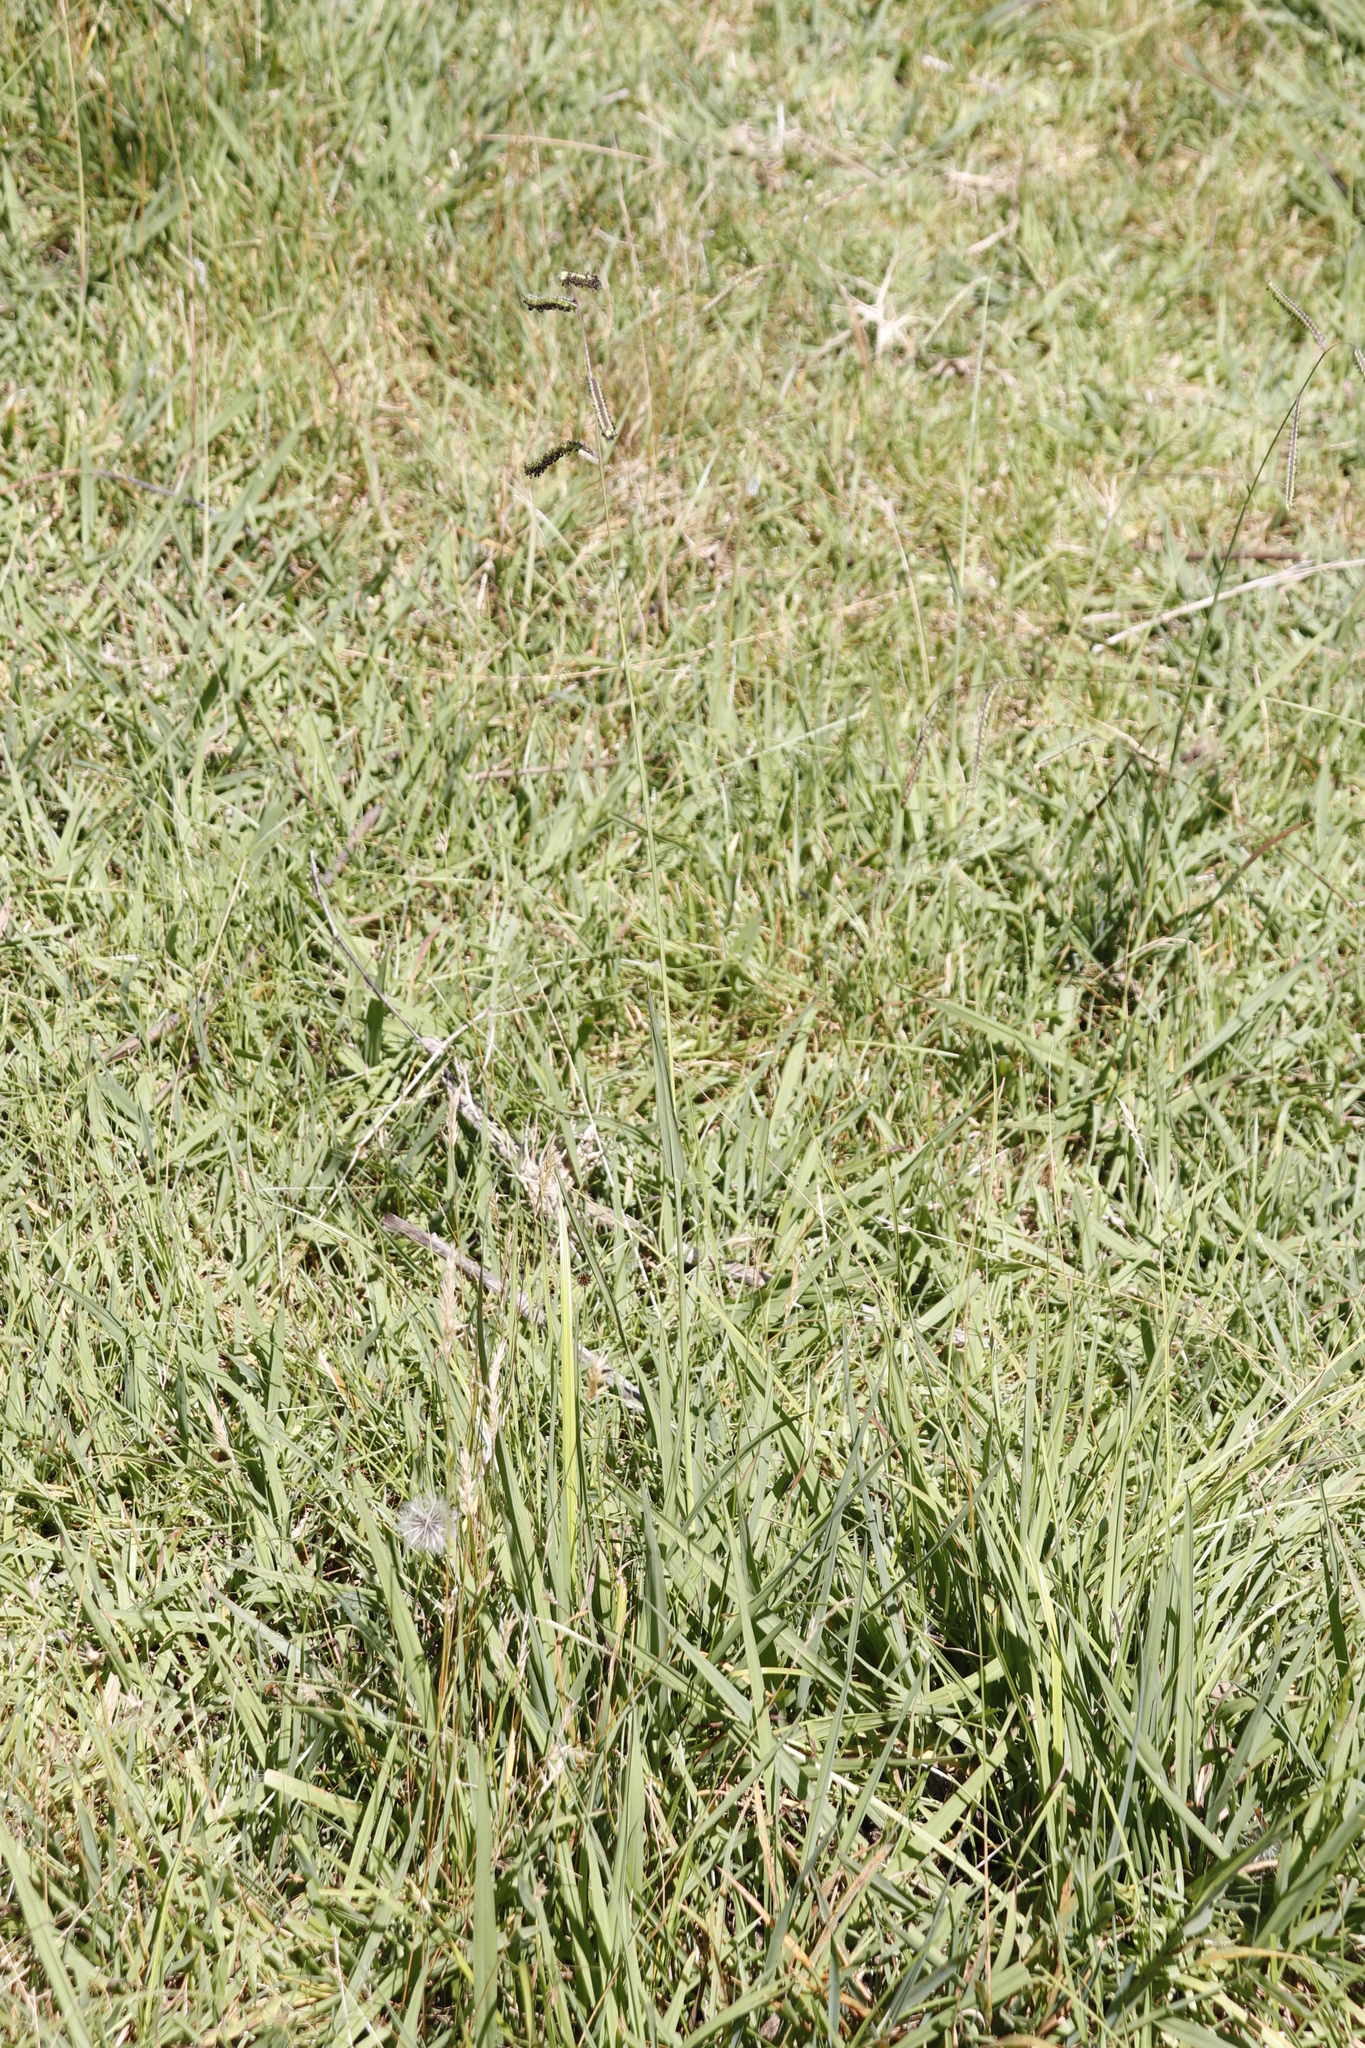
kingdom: Plantae
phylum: Tracheophyta
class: Liliopsida
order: Poales
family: Poaceae
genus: Paspalum
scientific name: Paspalum dilatatum
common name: Dallisgrass
